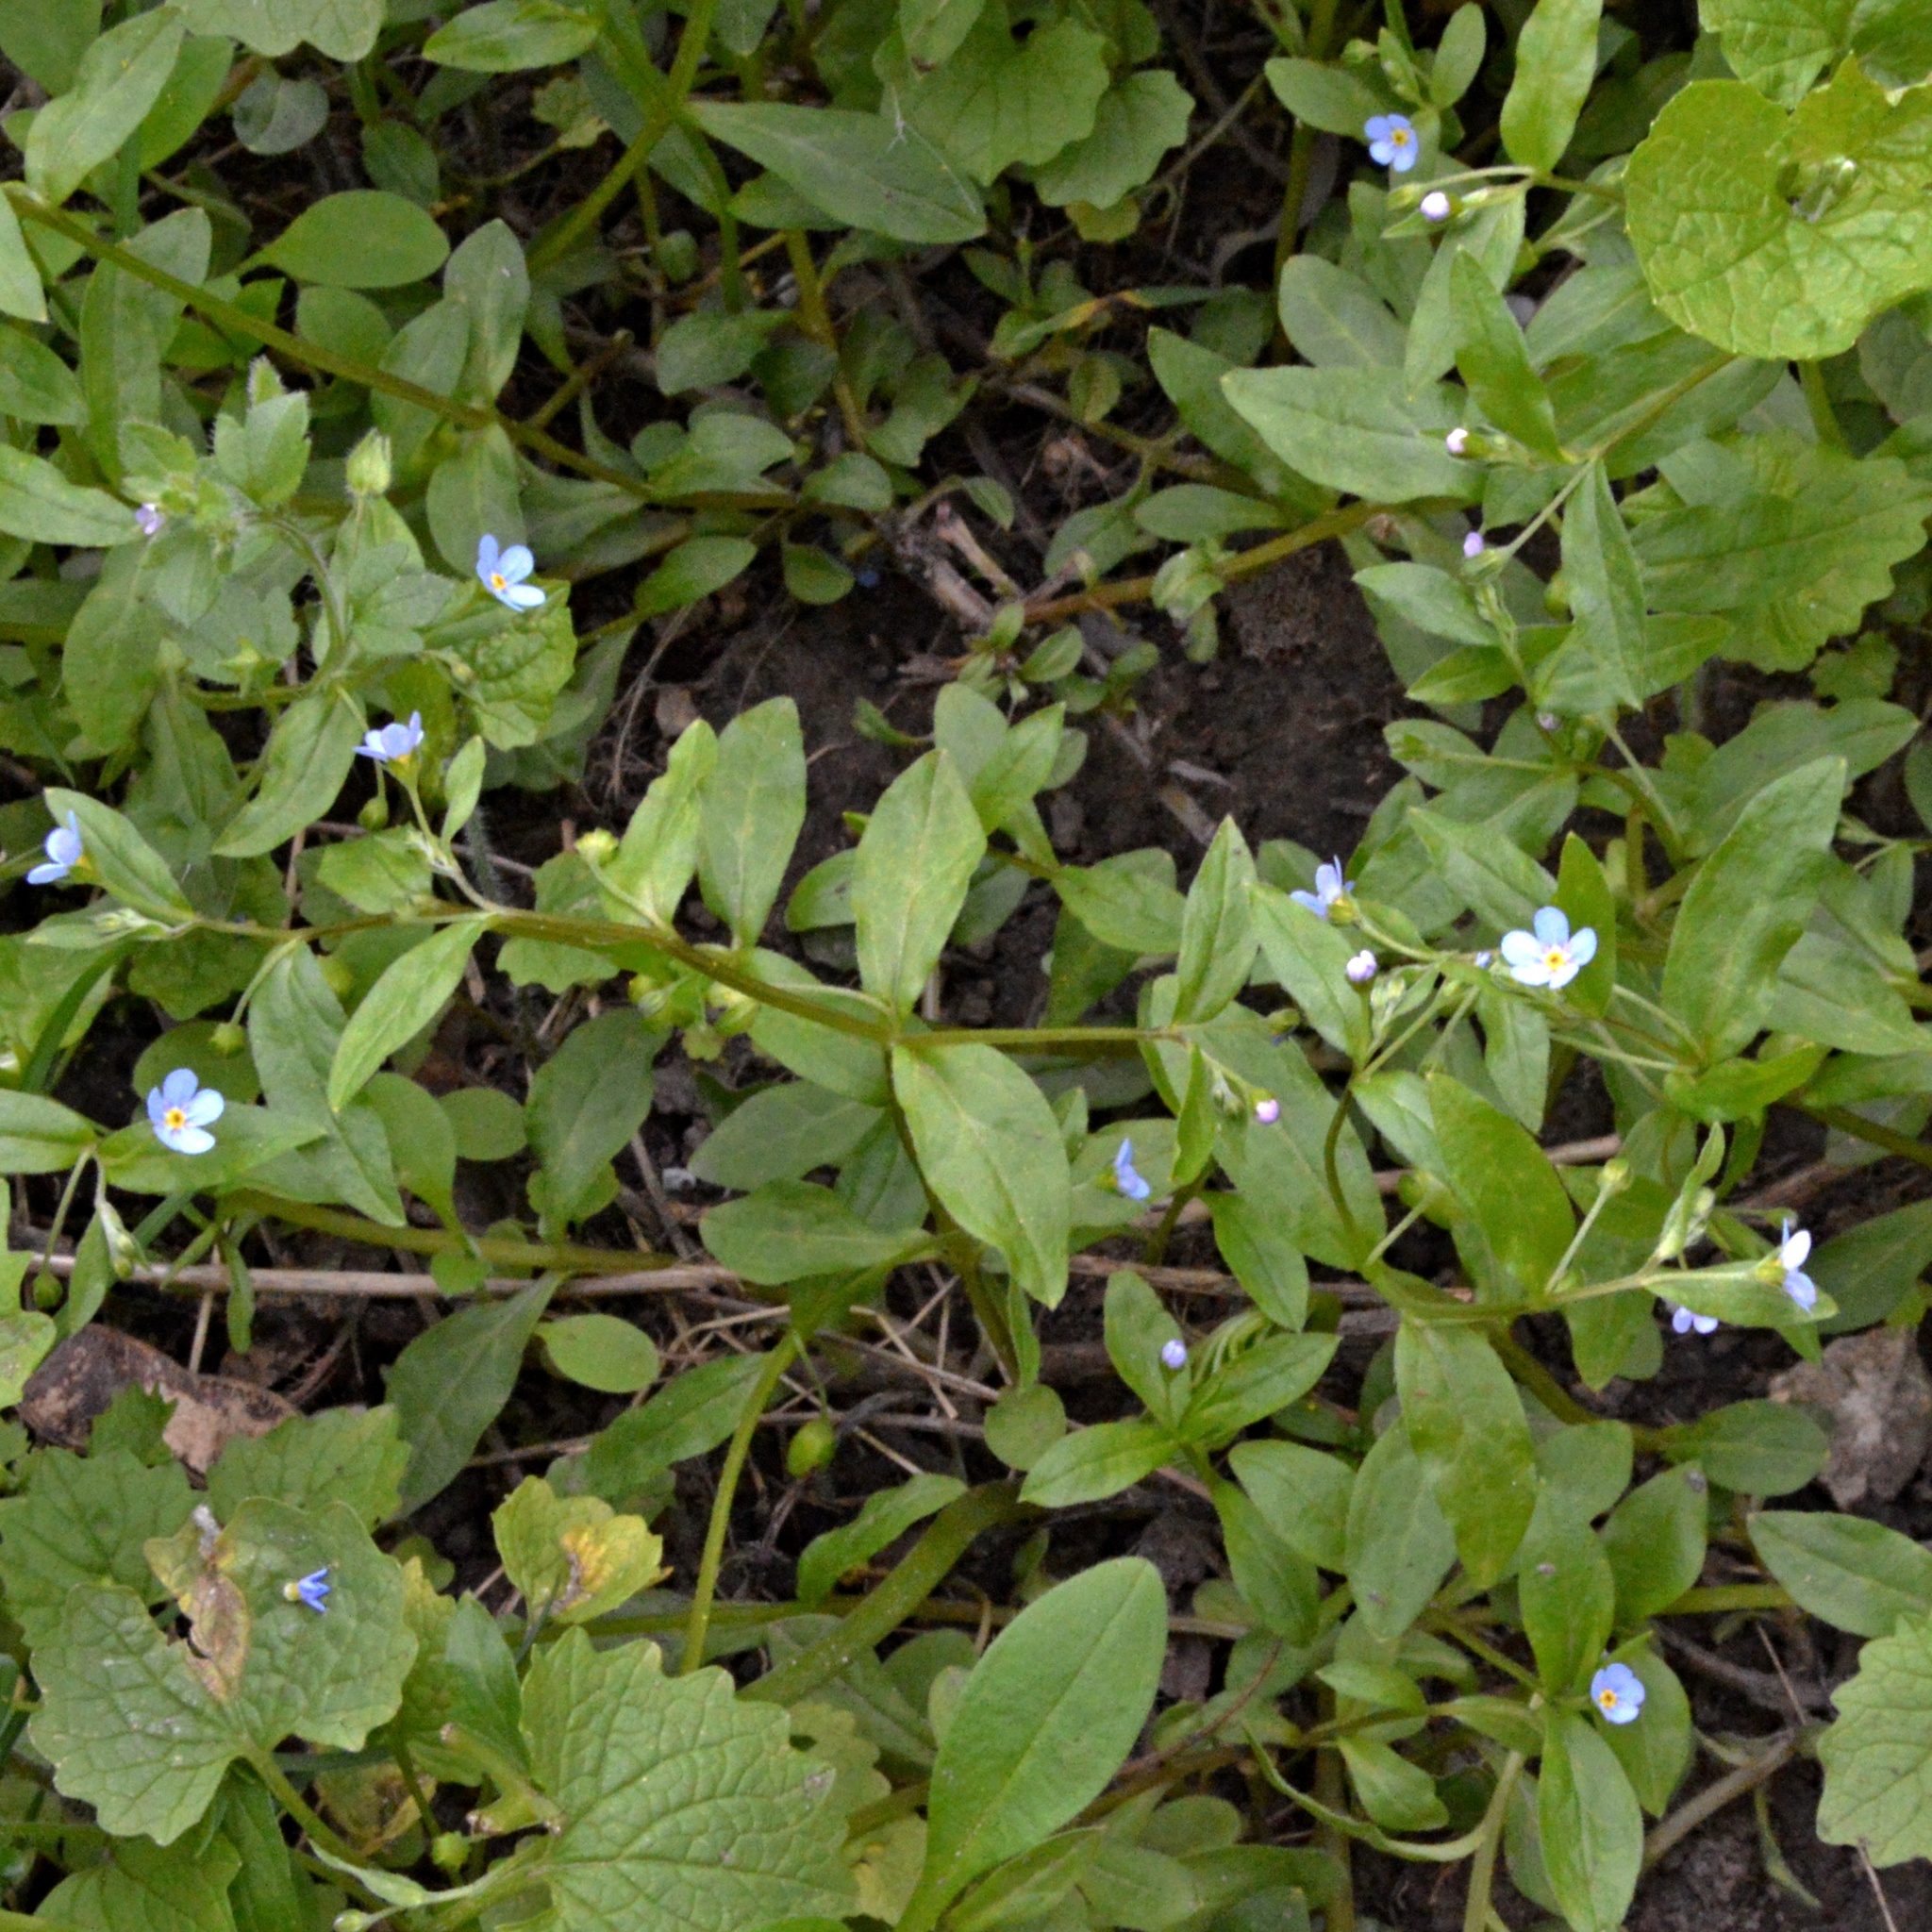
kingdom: Plantae
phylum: Tracheophyta
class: Magnoliopsida
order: Boraginales
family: Boraginaceae
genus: Memoremea
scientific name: Memoremea scorpioides
